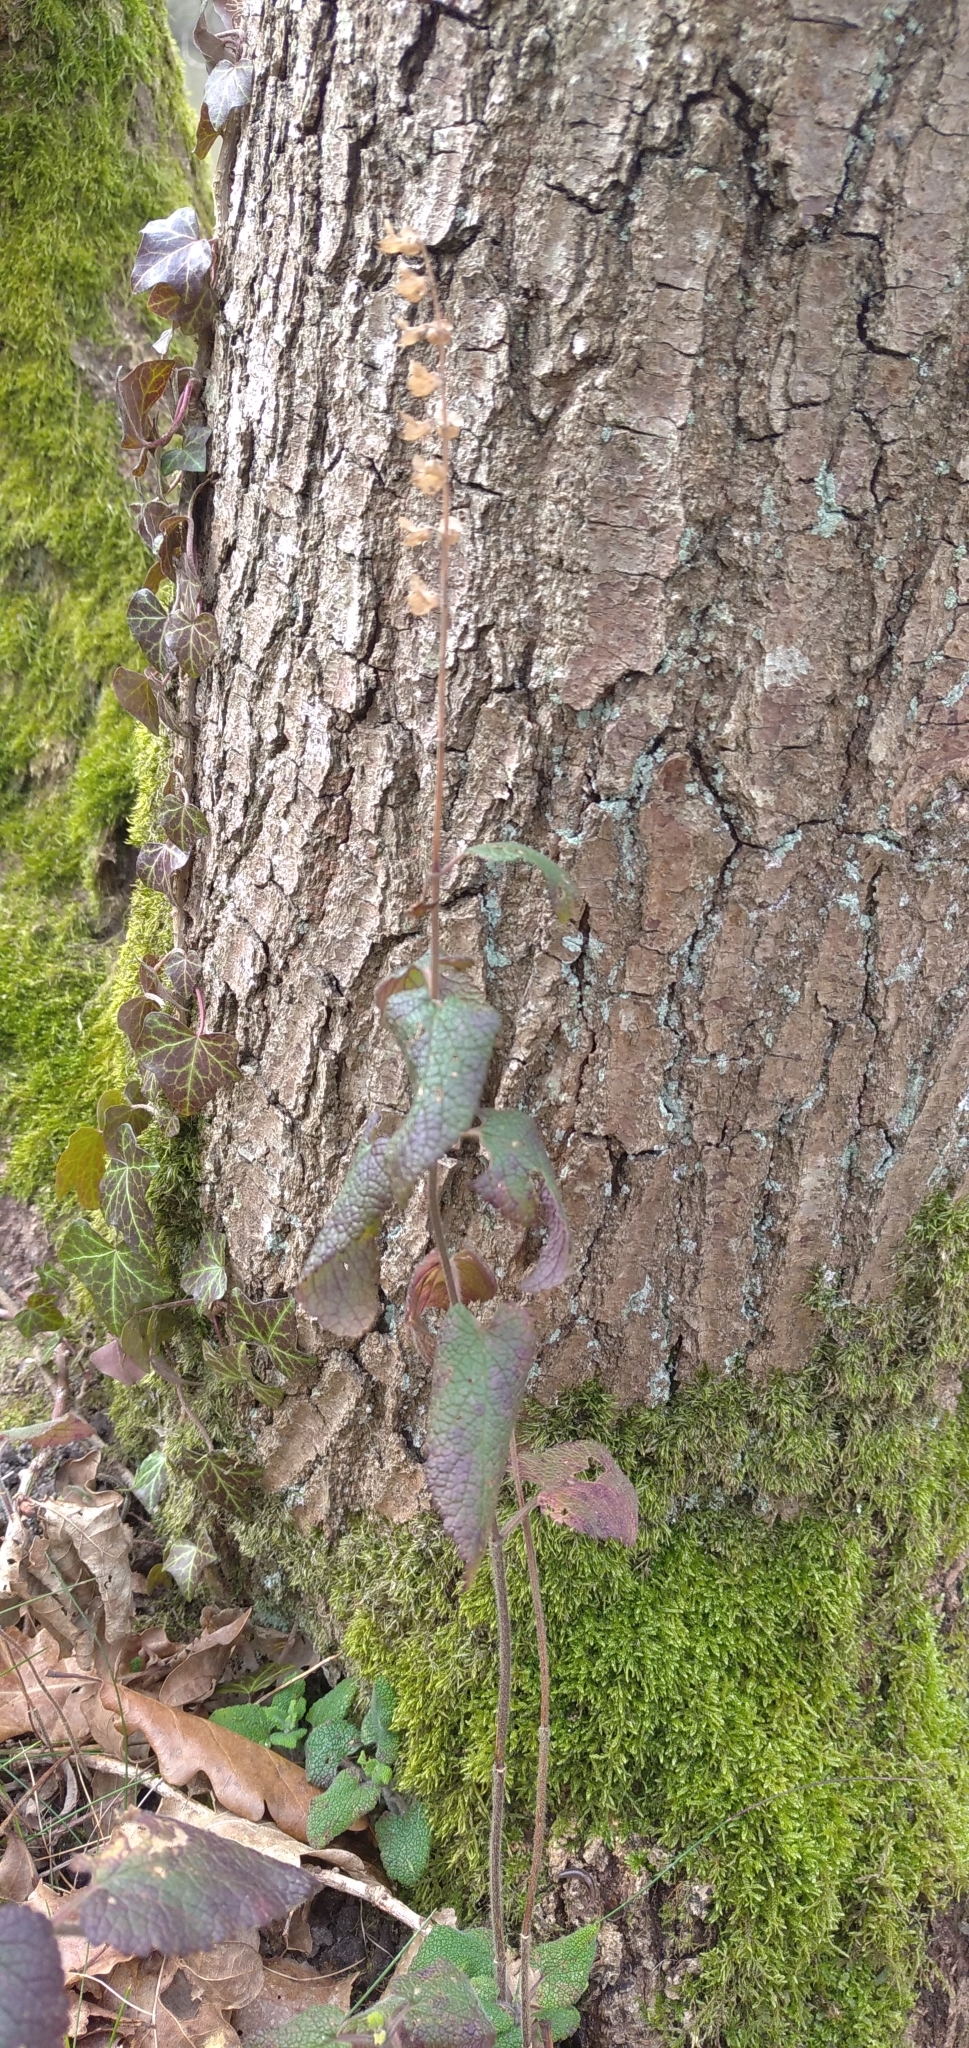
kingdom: Plantae
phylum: Tracheophyta
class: Magnoliopsida
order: Lamiales
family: Lamiaceae
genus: Teucrium
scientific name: Teucrium scorodonia
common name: Woodland germander
